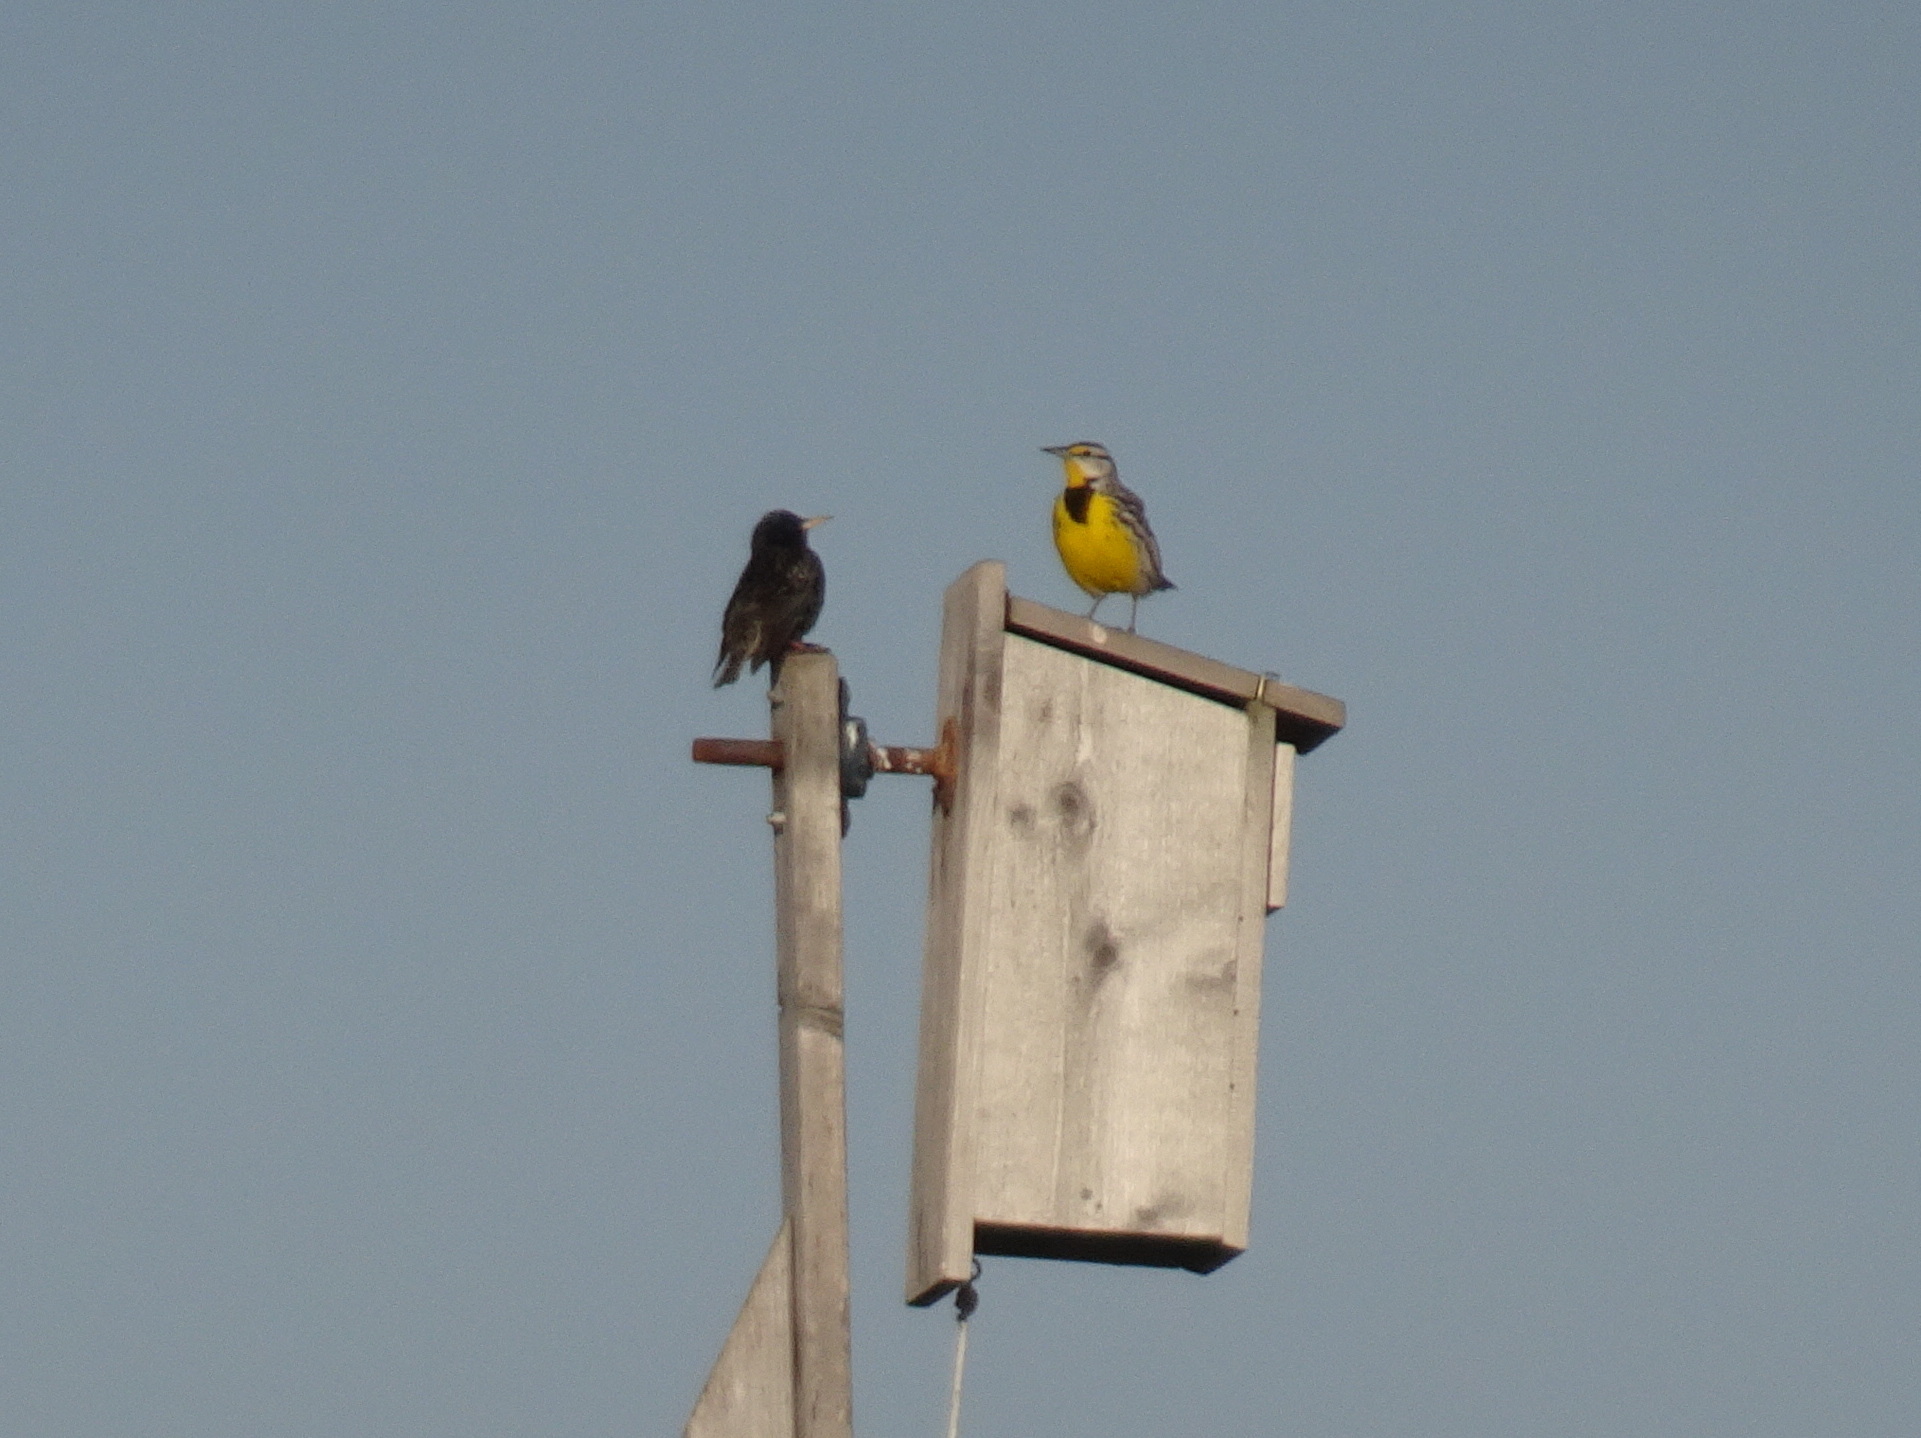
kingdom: Animalia
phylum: Chordata
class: Aves
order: Passeriformes
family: Icteridae
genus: Sturnella
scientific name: Sturnella magna
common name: Eastern meadowlark
